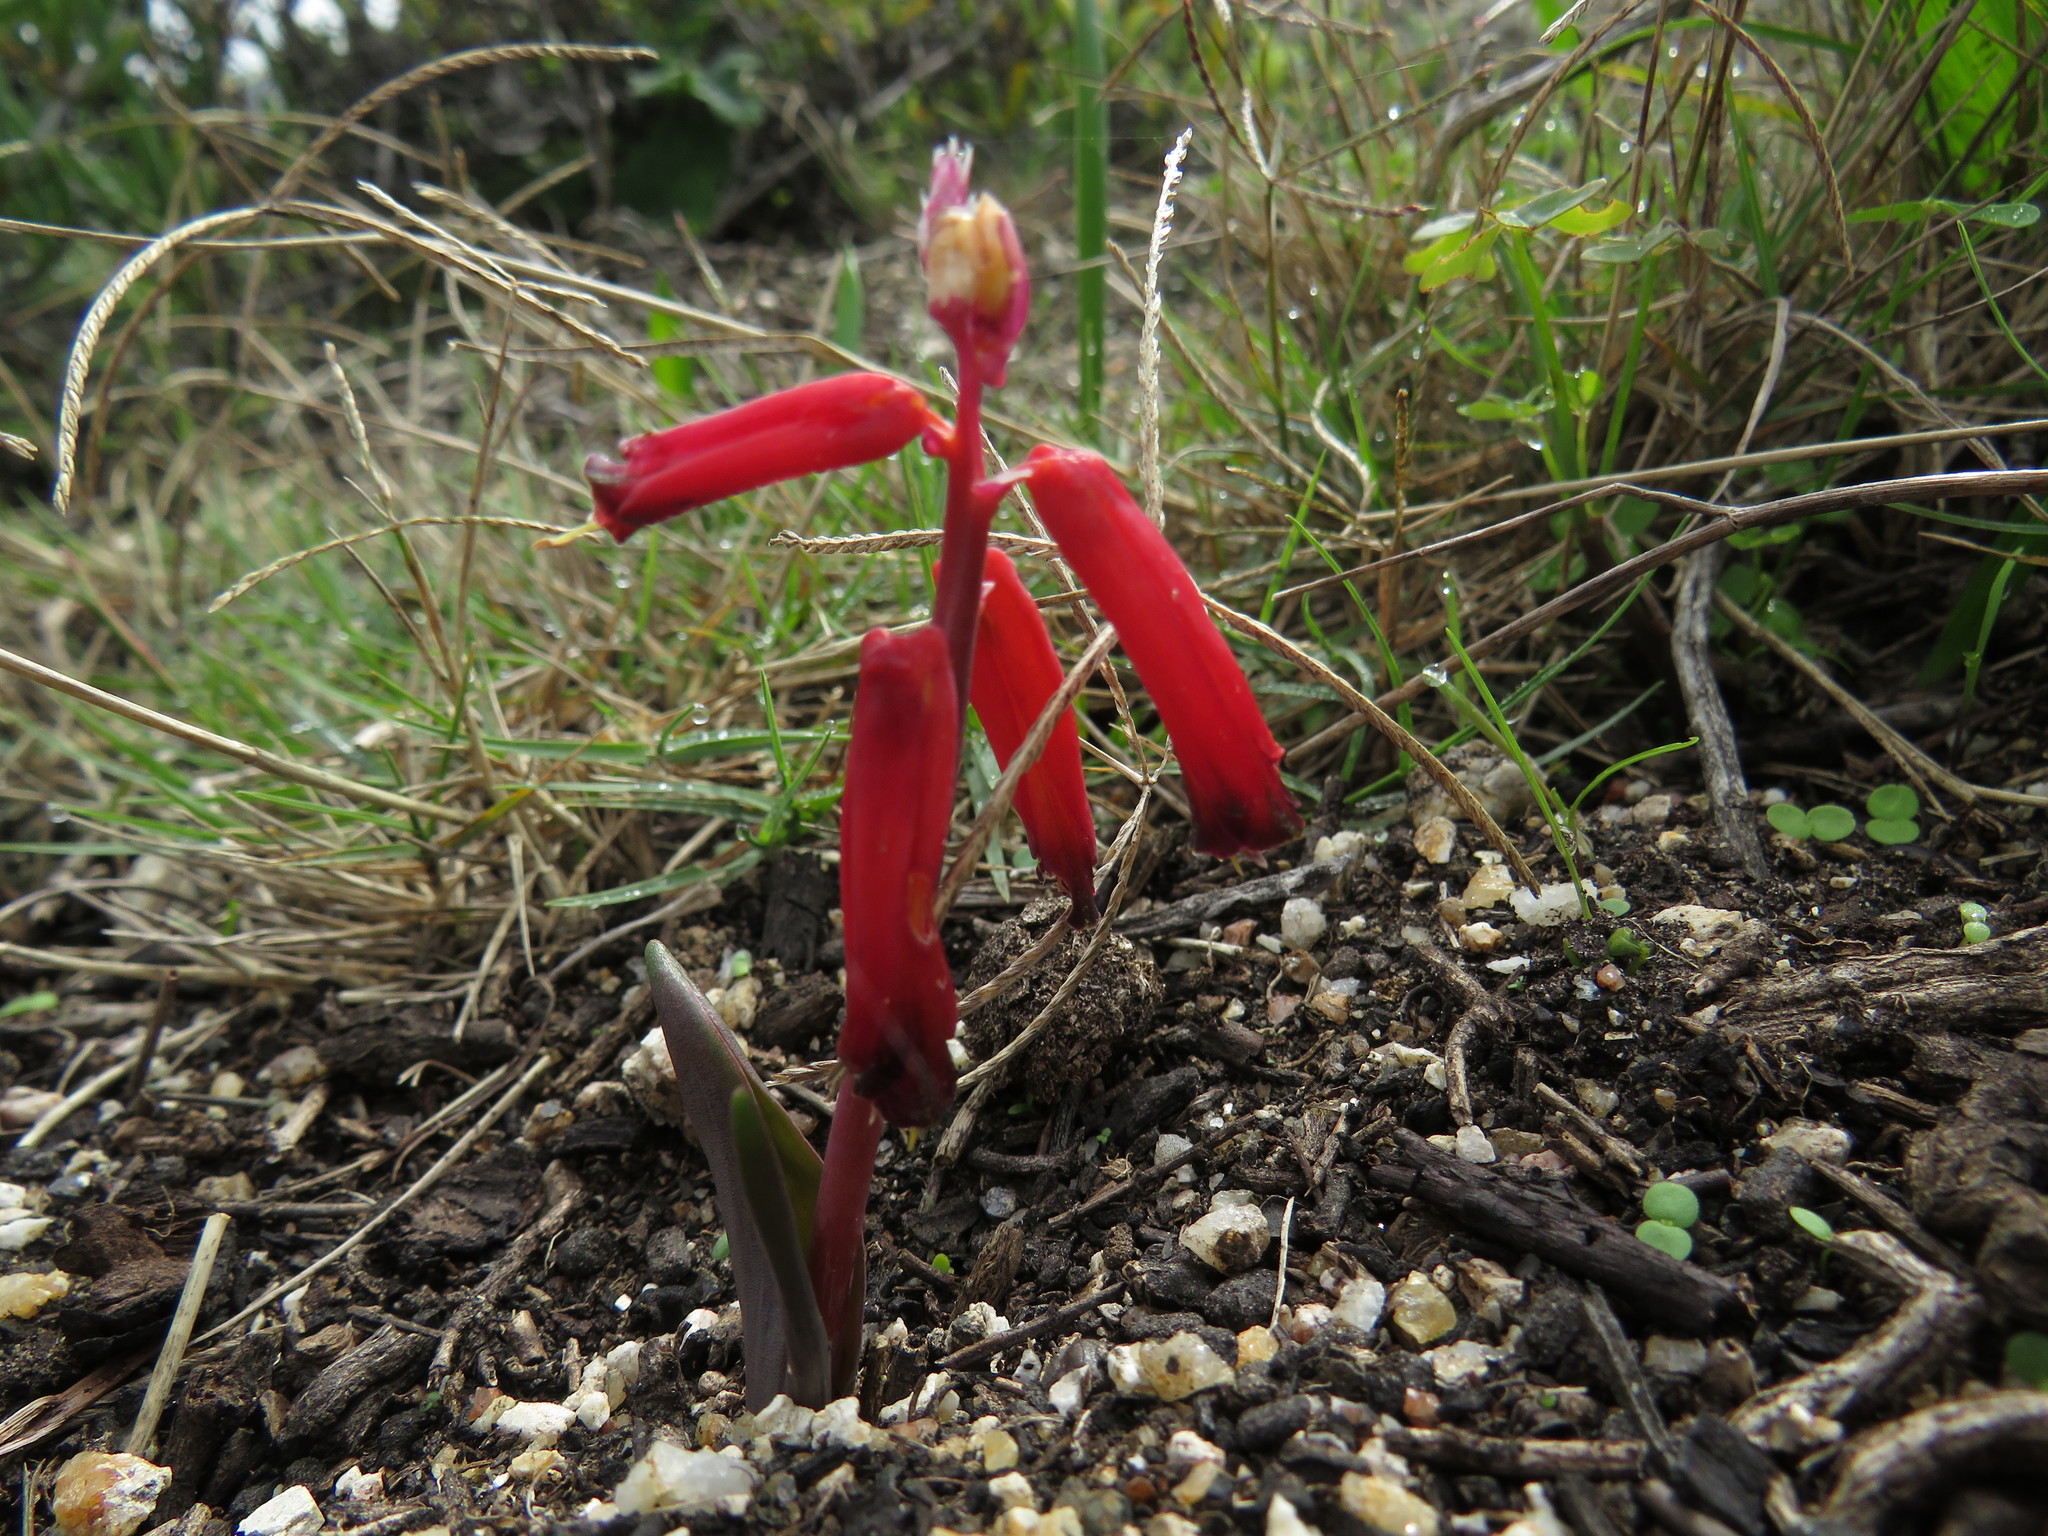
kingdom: Plantae
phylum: Tracheophyta
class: Liliopsida
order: Asparagales
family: Asparagaceae
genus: Lachenalia
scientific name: Lachenalia bulbifera
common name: Red lachenalia
